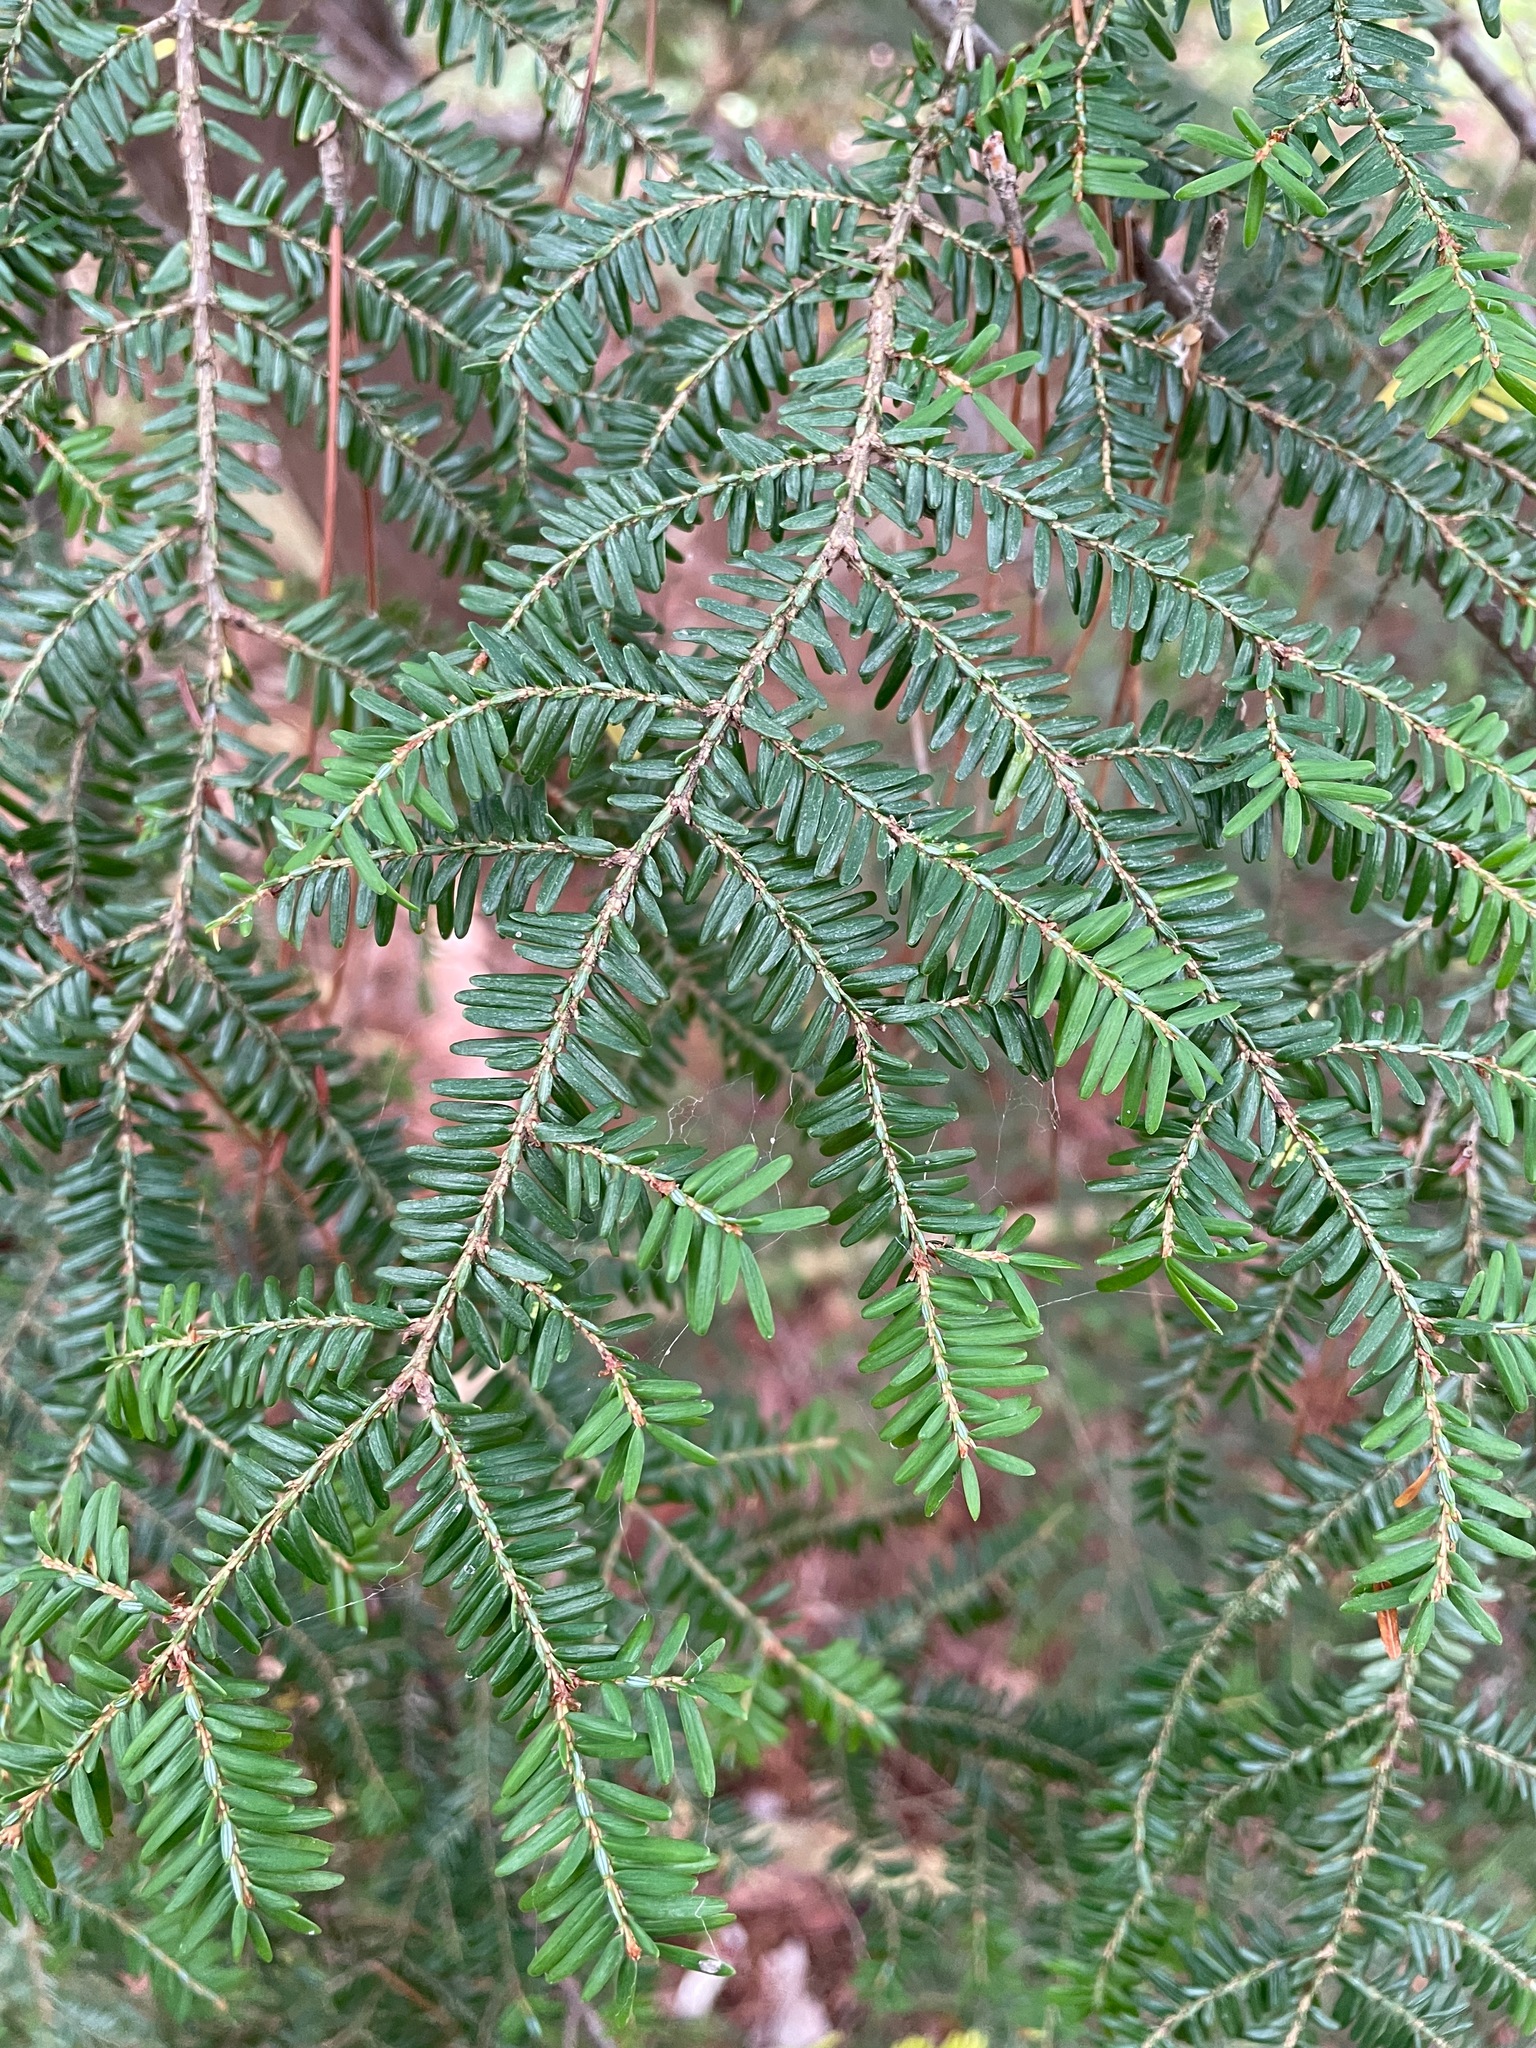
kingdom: Plantae
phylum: Tracheophyta
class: Pinopsida
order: Pinales
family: Pinaceae
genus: Tsuga
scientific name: Tsuga canadensis
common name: Eastern hemlock
